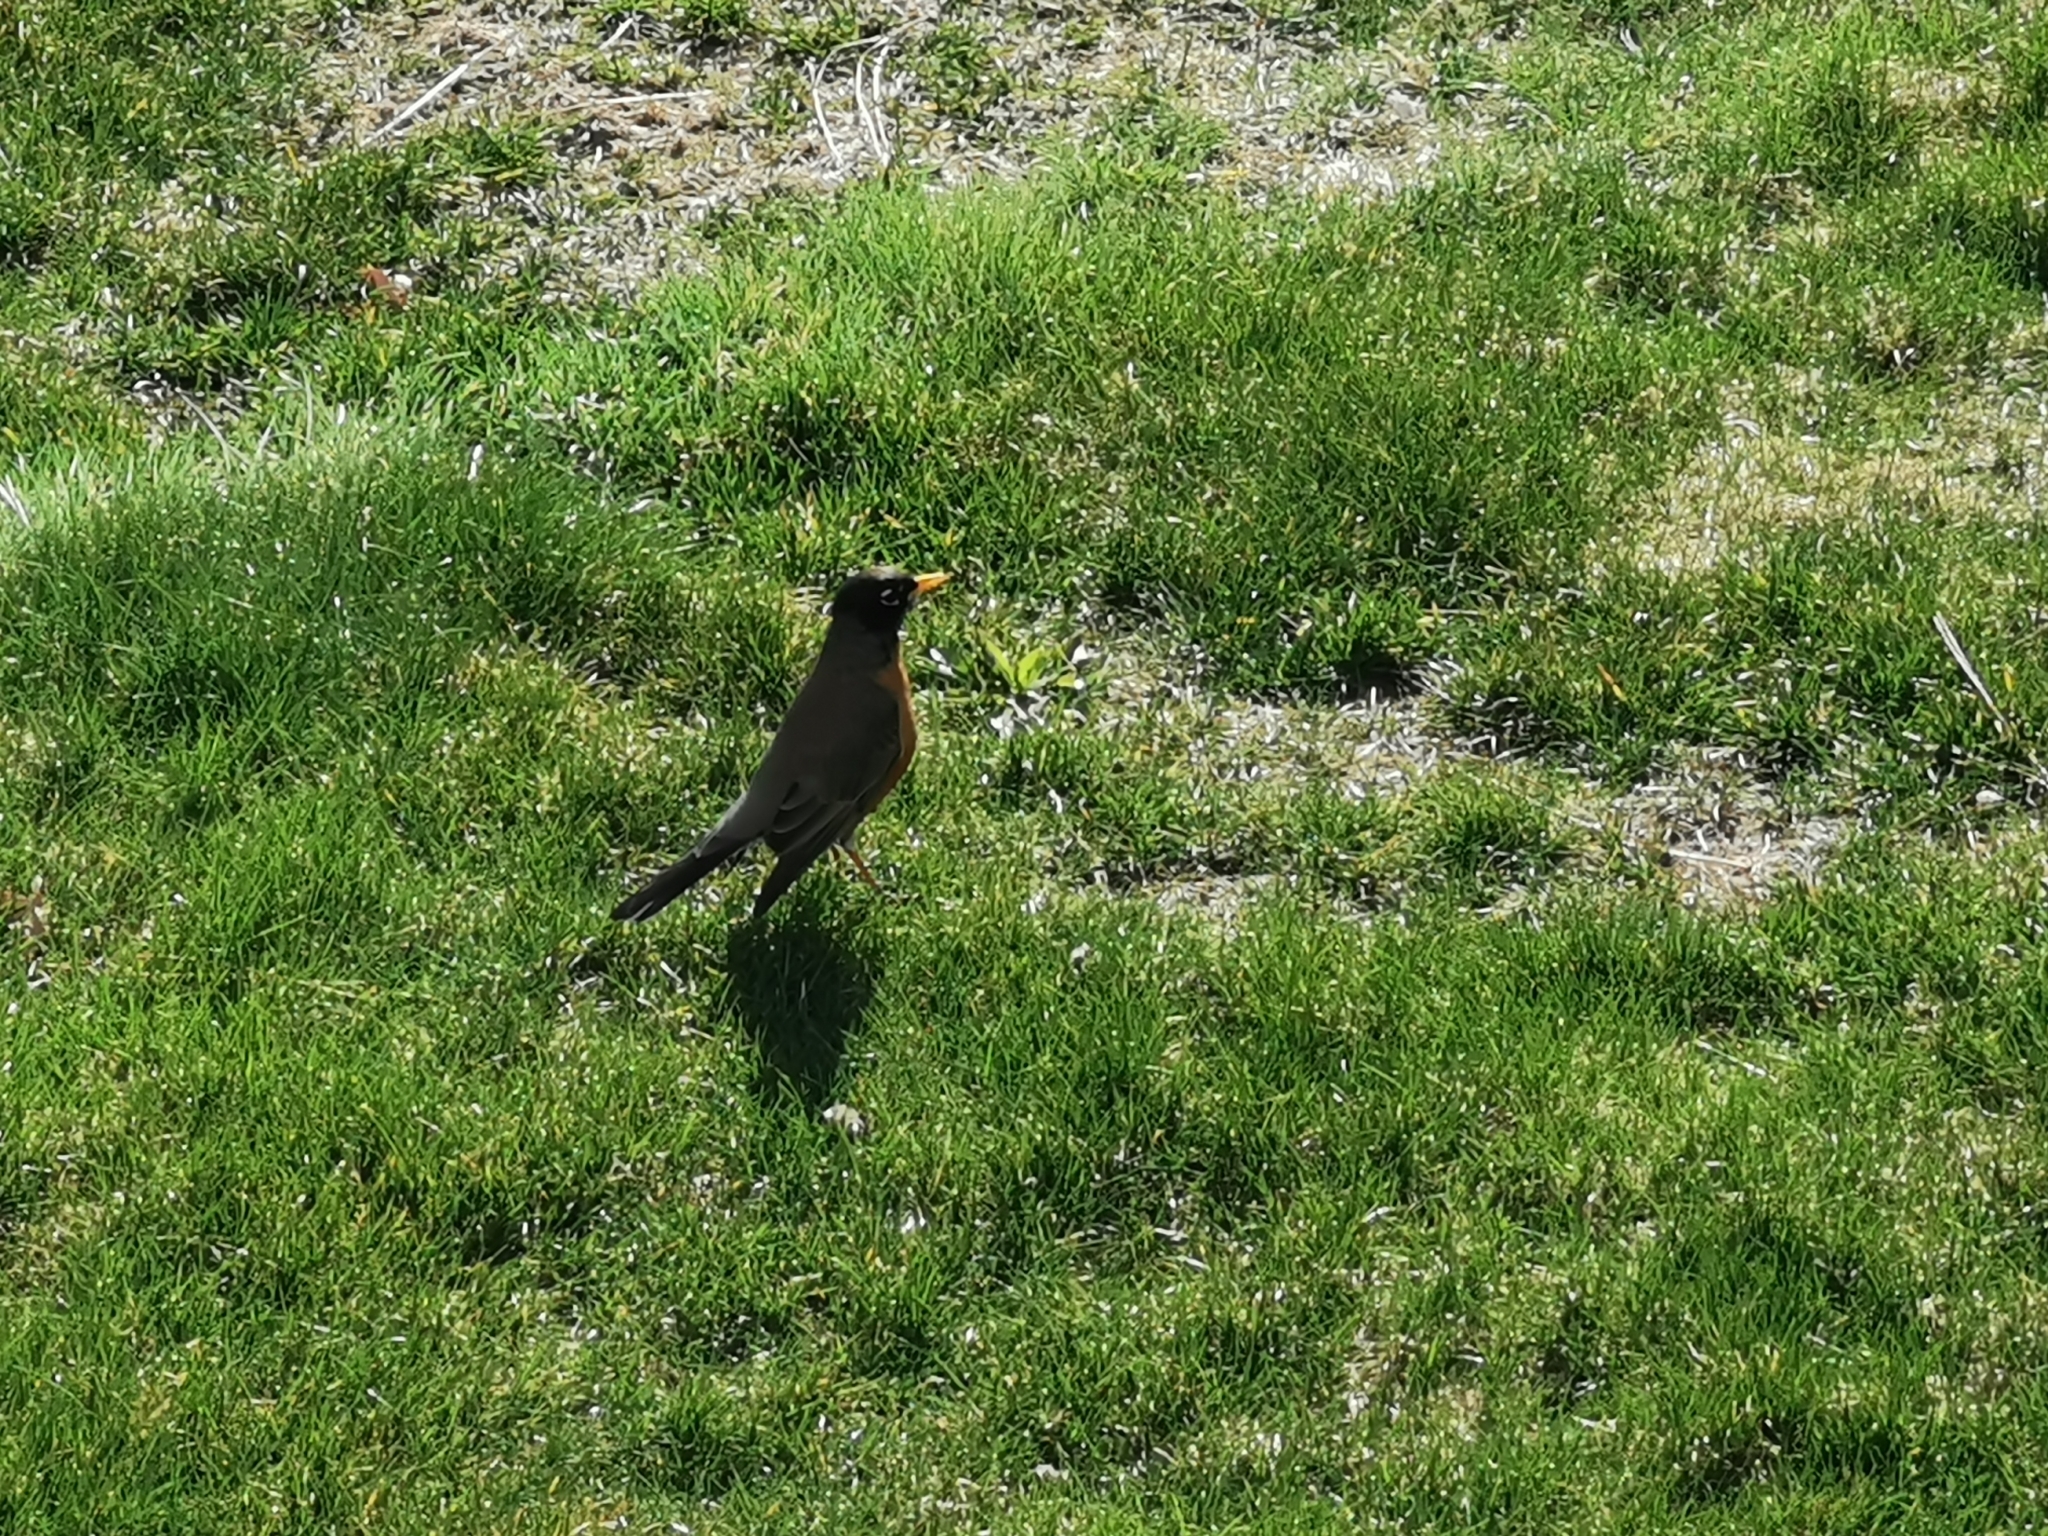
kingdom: Animalia
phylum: Chordata
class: Aves
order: Passeriformes
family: Turdidae
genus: Turdus
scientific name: Turdus migratorius
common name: American robin
